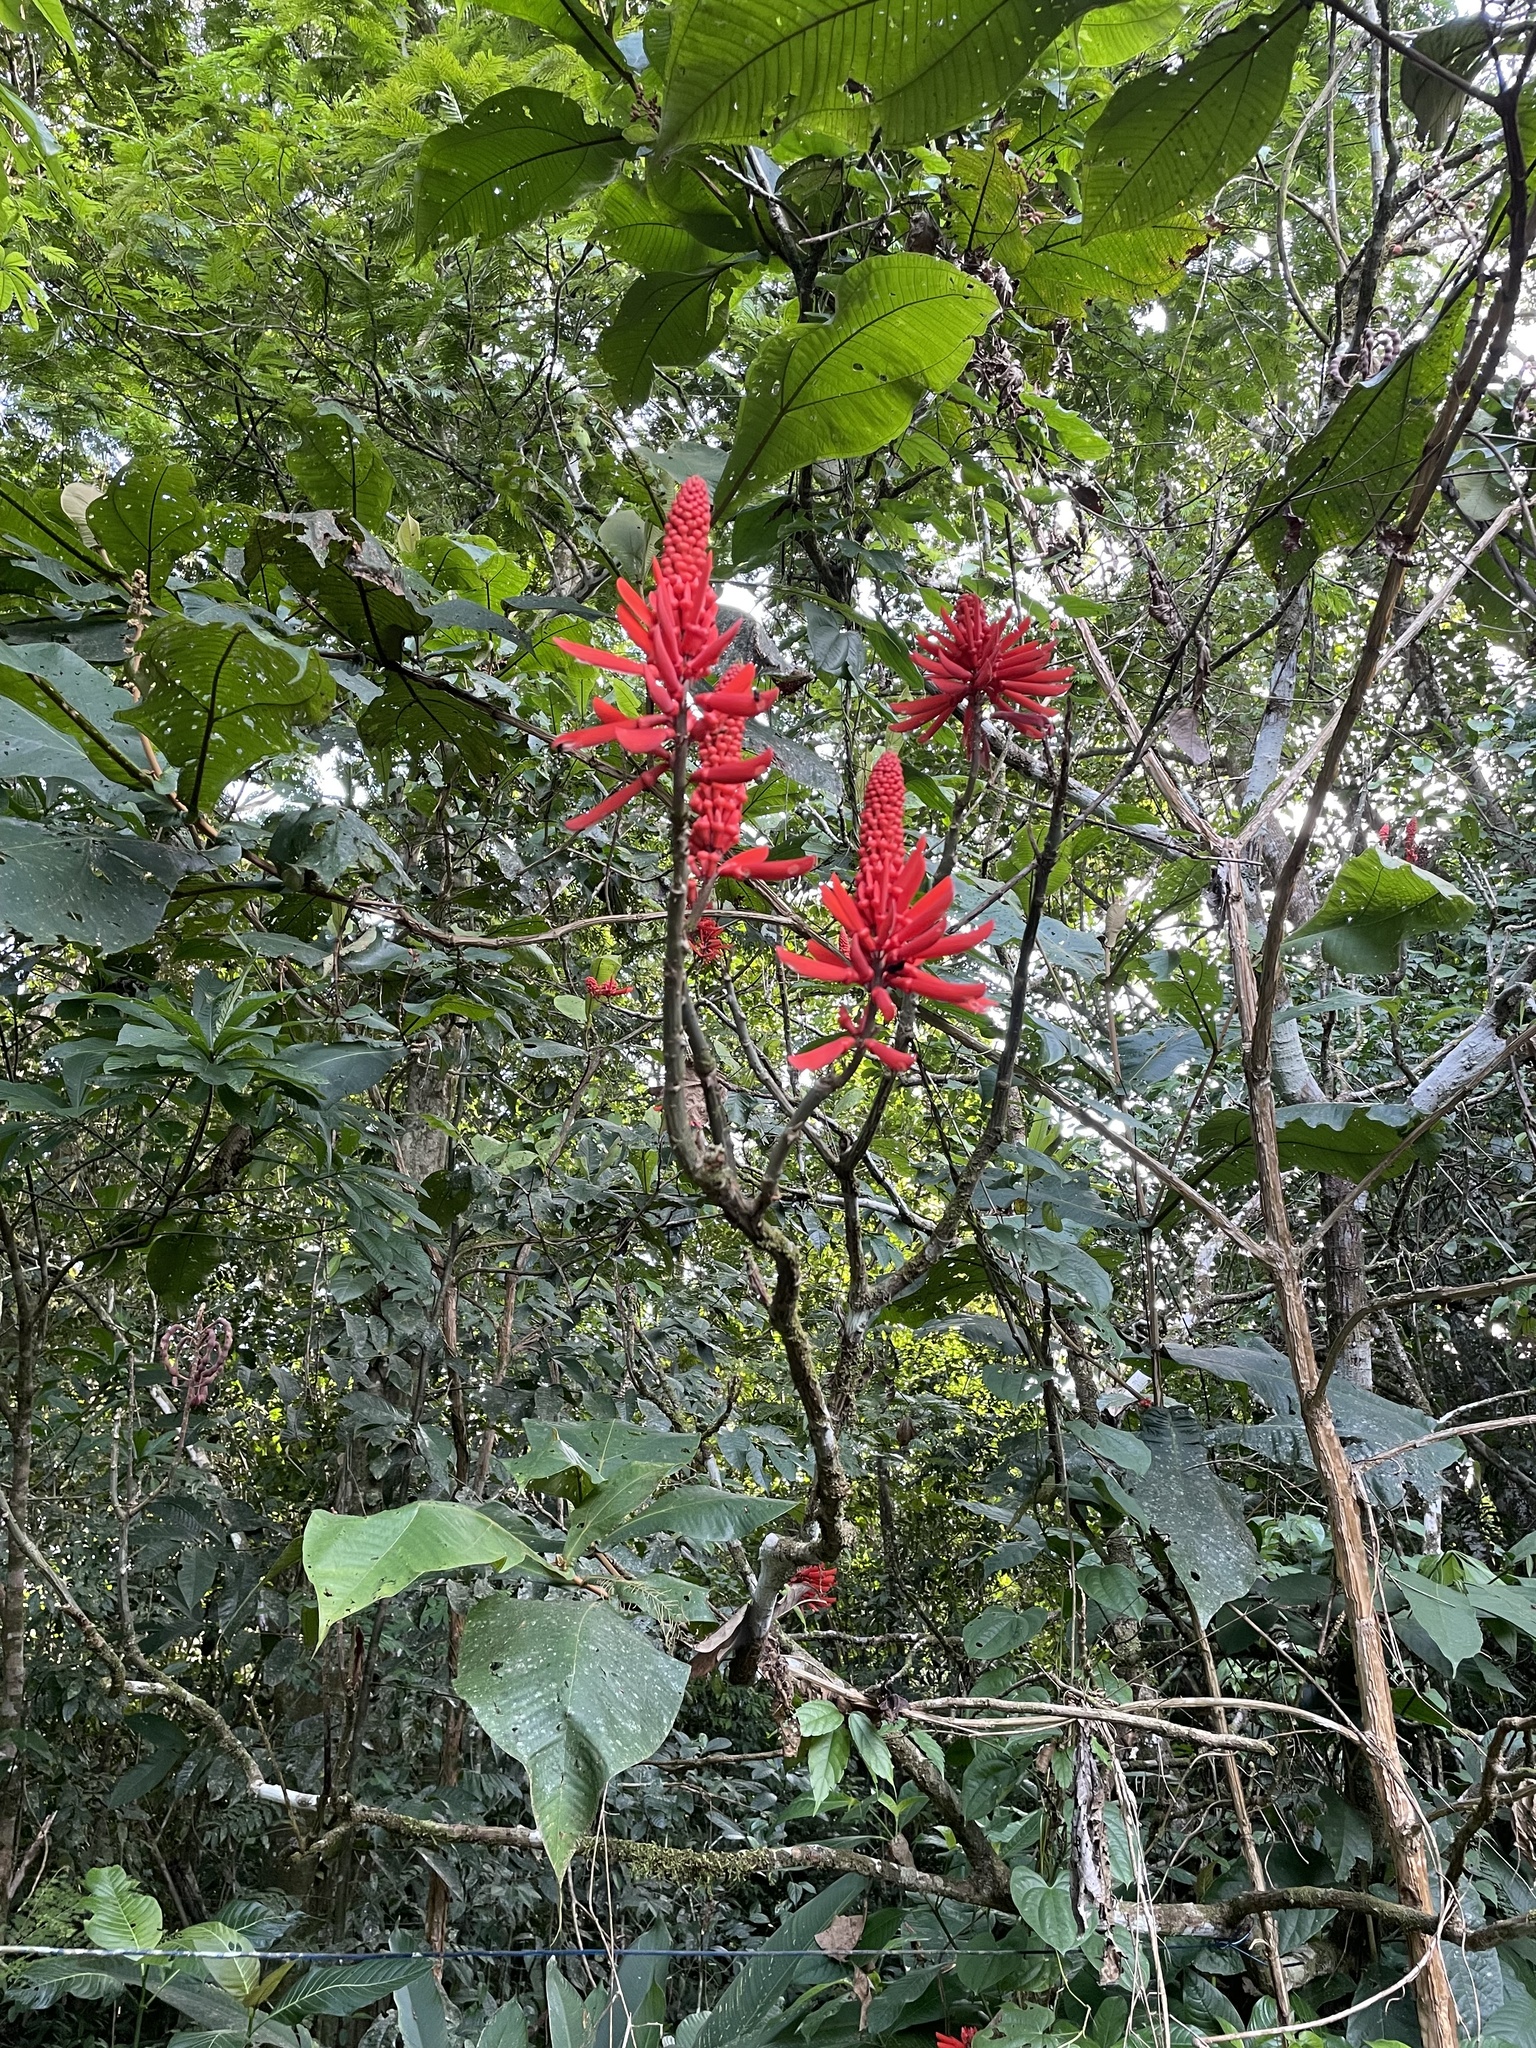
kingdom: Plantae
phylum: Tracheophyta
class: Magnoliopsida
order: Fabales
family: Fabaceae
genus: Erythrina
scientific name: Erythrina gibbosa
